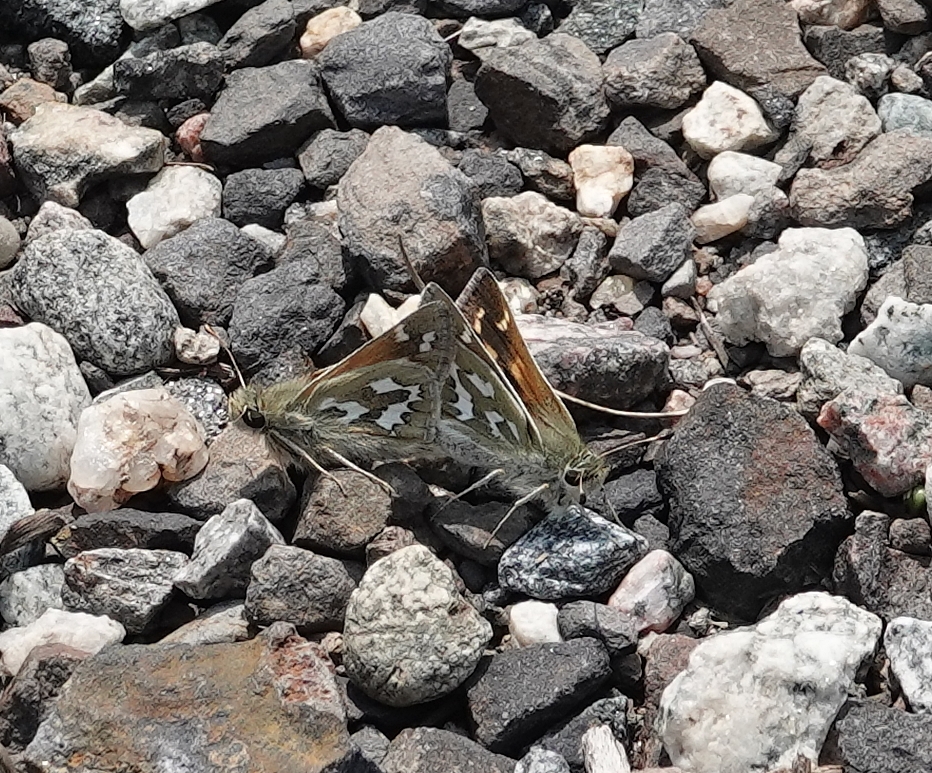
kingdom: Animalia
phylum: Arthropoda
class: Insecta
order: Lepidoptera
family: Hesperiidae
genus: Hesperia
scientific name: Hesperia comma
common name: Common branded skipper
